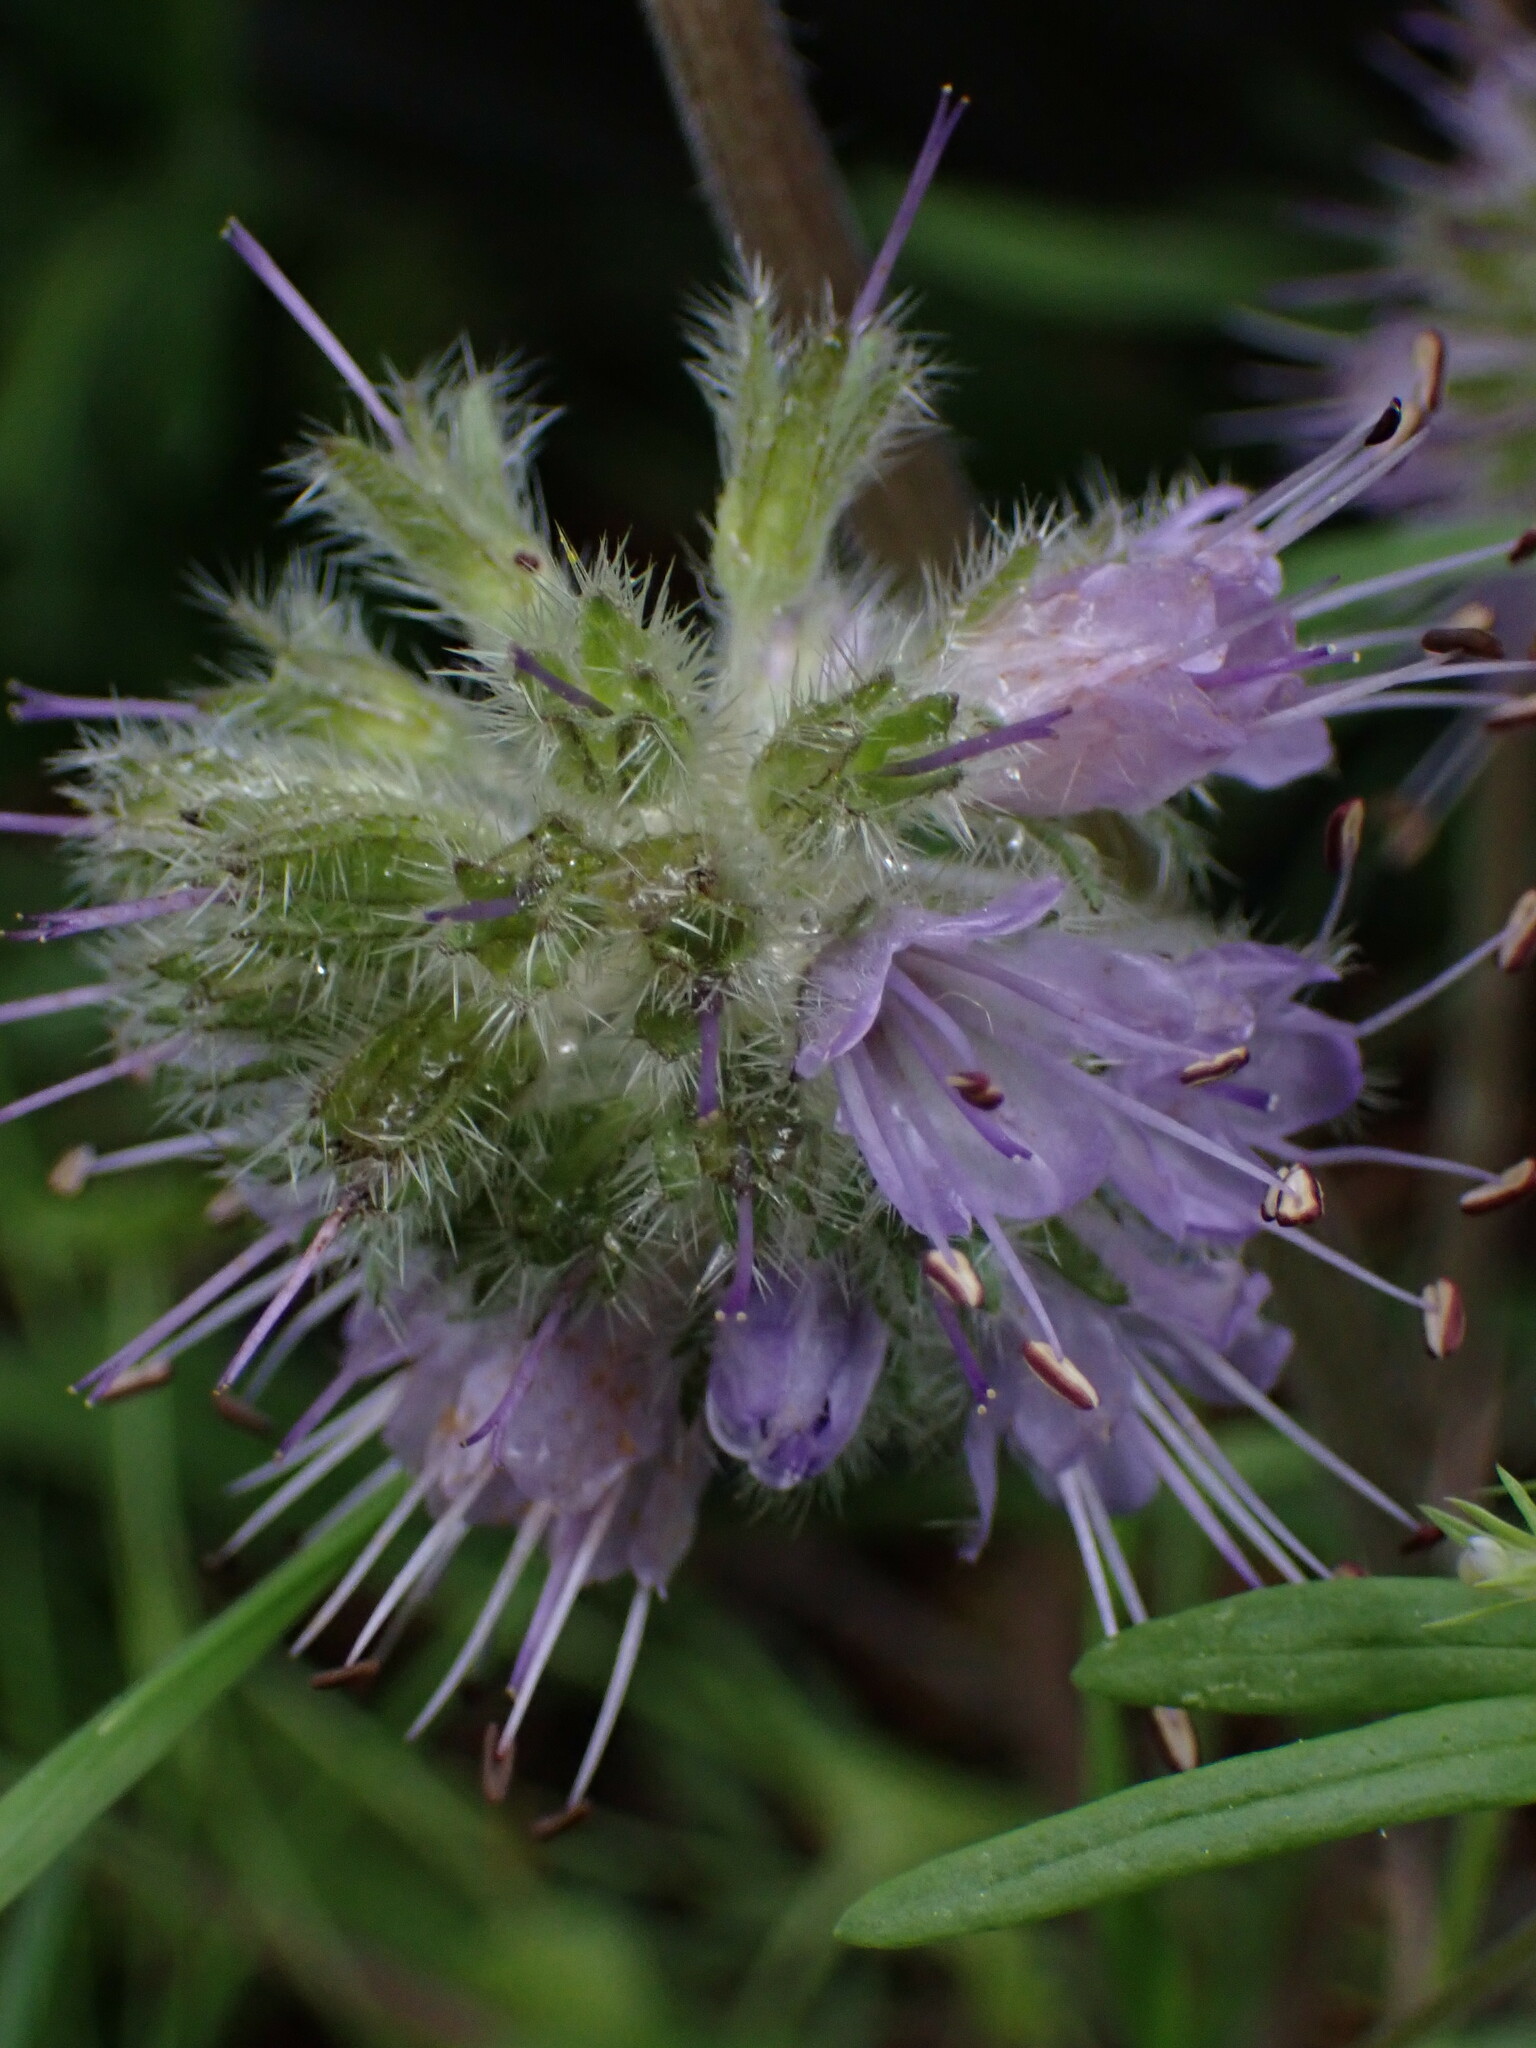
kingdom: Plantae
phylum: Tracheophyta
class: Magnoliopsida
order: Boraginales
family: Hydrophyllaceae
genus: Hydrophyllum
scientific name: Hydrophyllum capitatum
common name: Woollen-breeches
